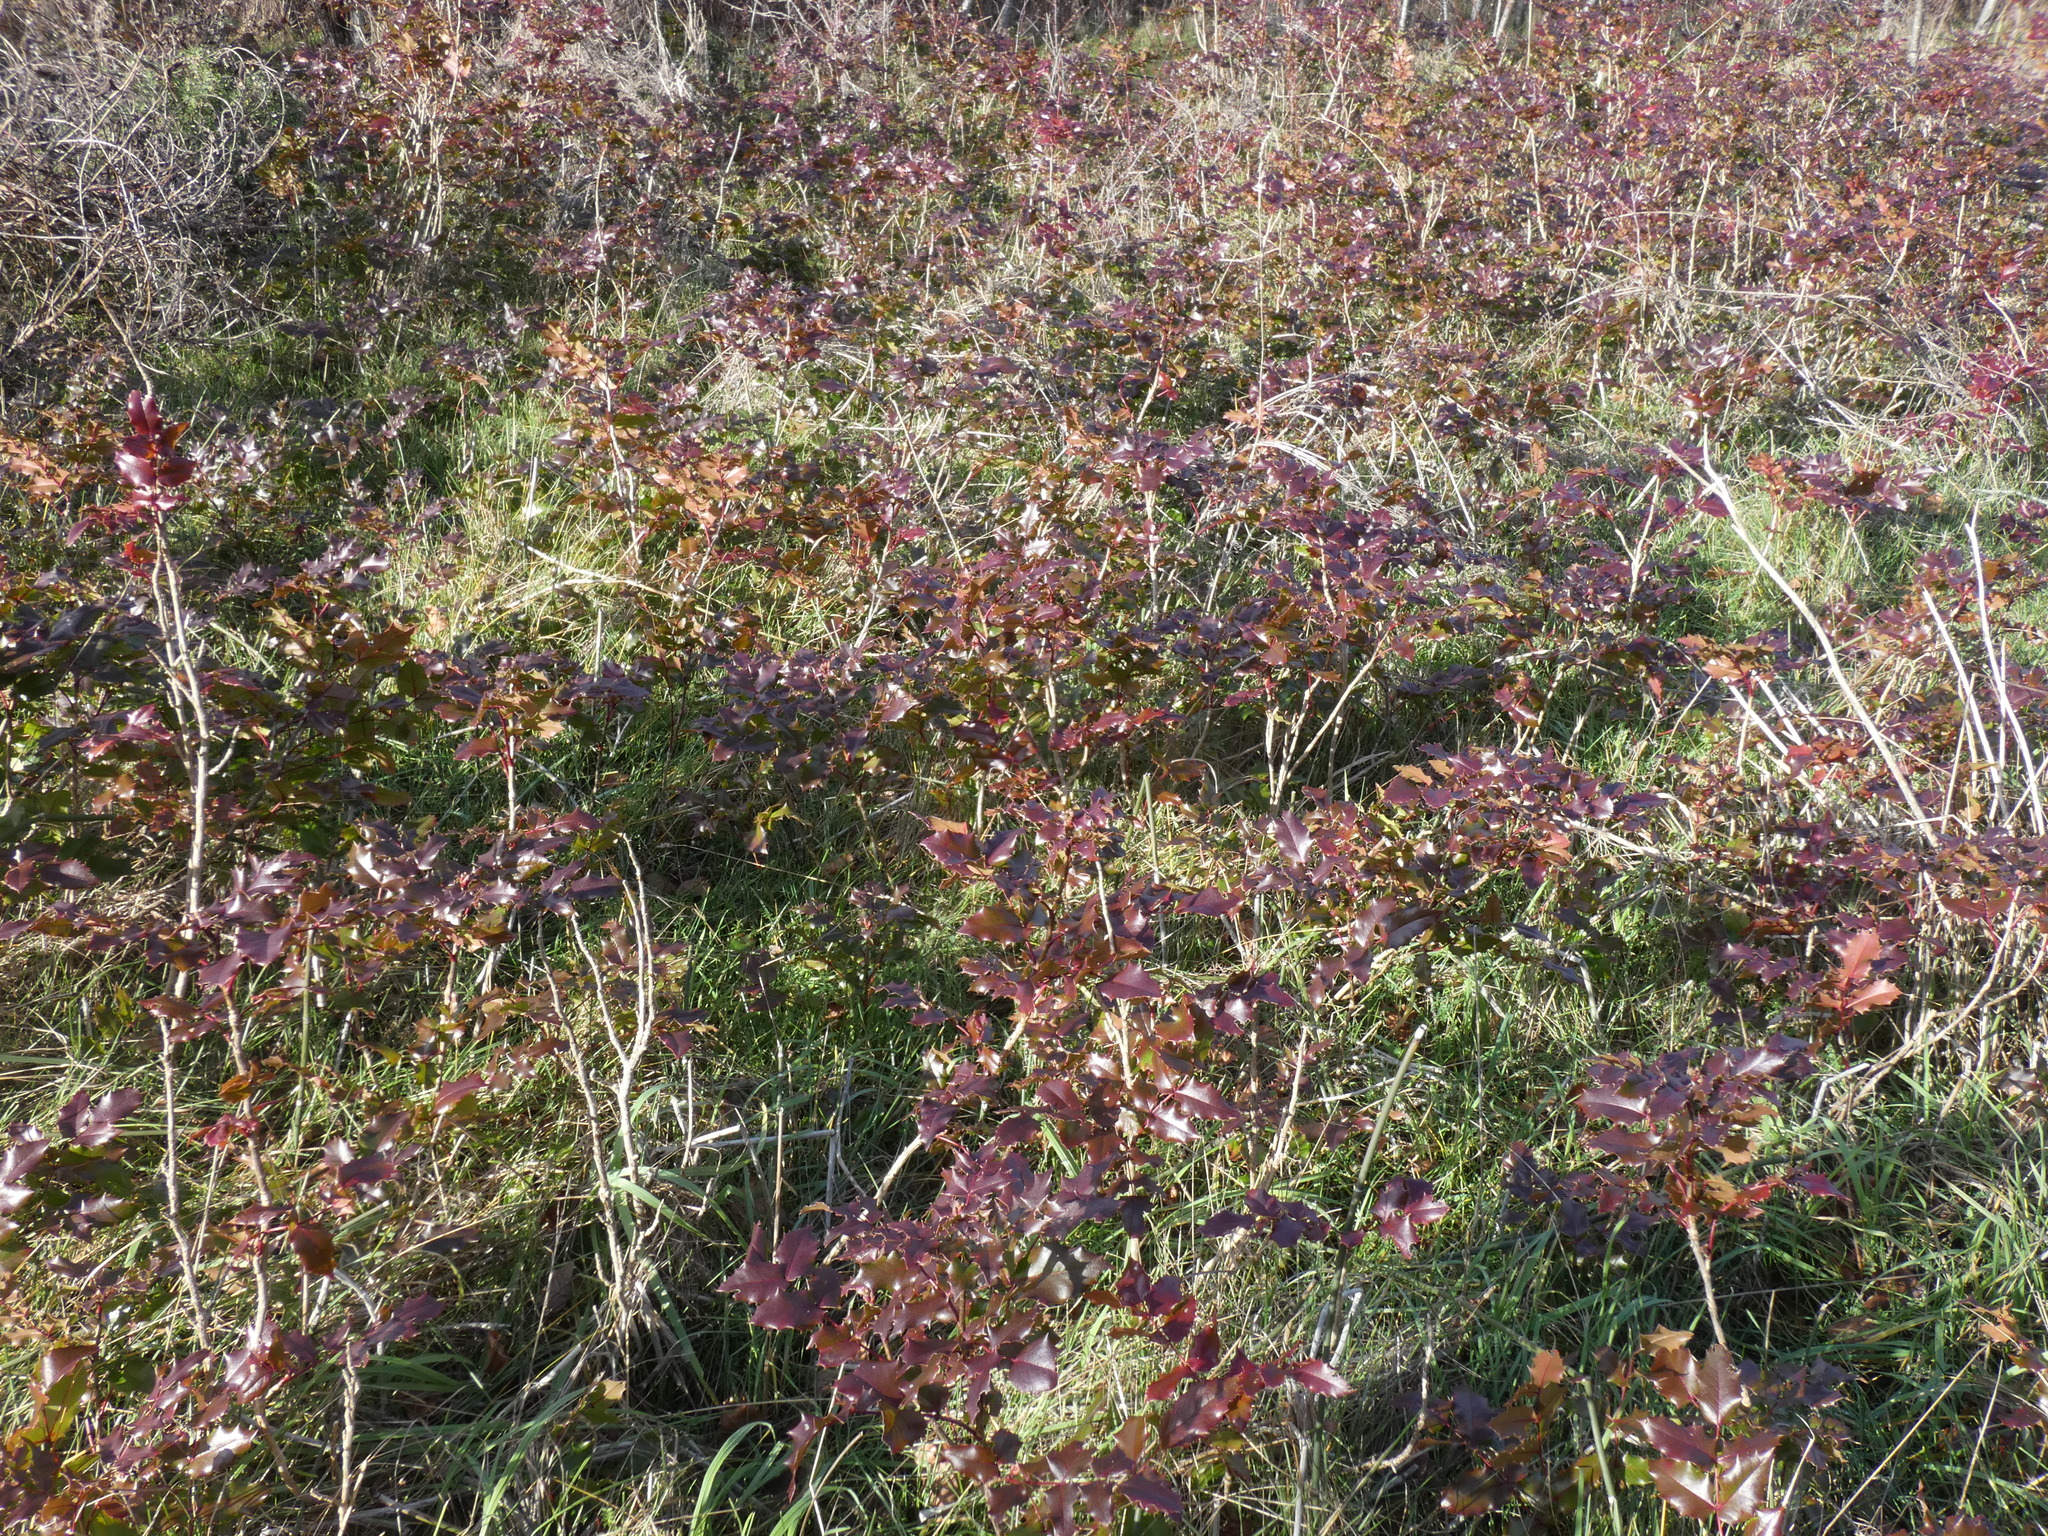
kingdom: Plantae
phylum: Tracheophyta
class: Magnoliopsida
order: Ranunculales
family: Berberidaceae
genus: Mahonia
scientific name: Mahonia aquifolium
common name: Oregon-grape
